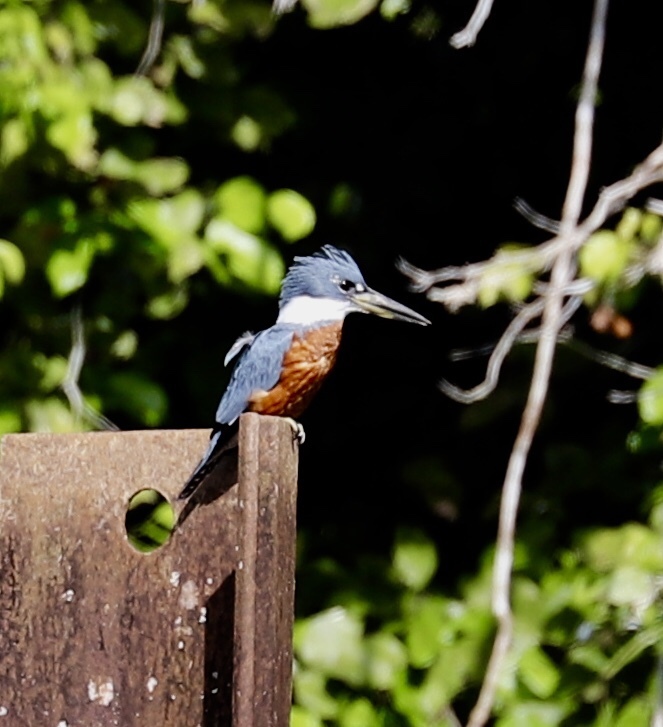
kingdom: Animalia
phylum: Chordata
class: Aves
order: Coraciiformes
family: Alcedinidae
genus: Megaceryle
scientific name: Megaceryle torquata
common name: Ringed kingfisher
